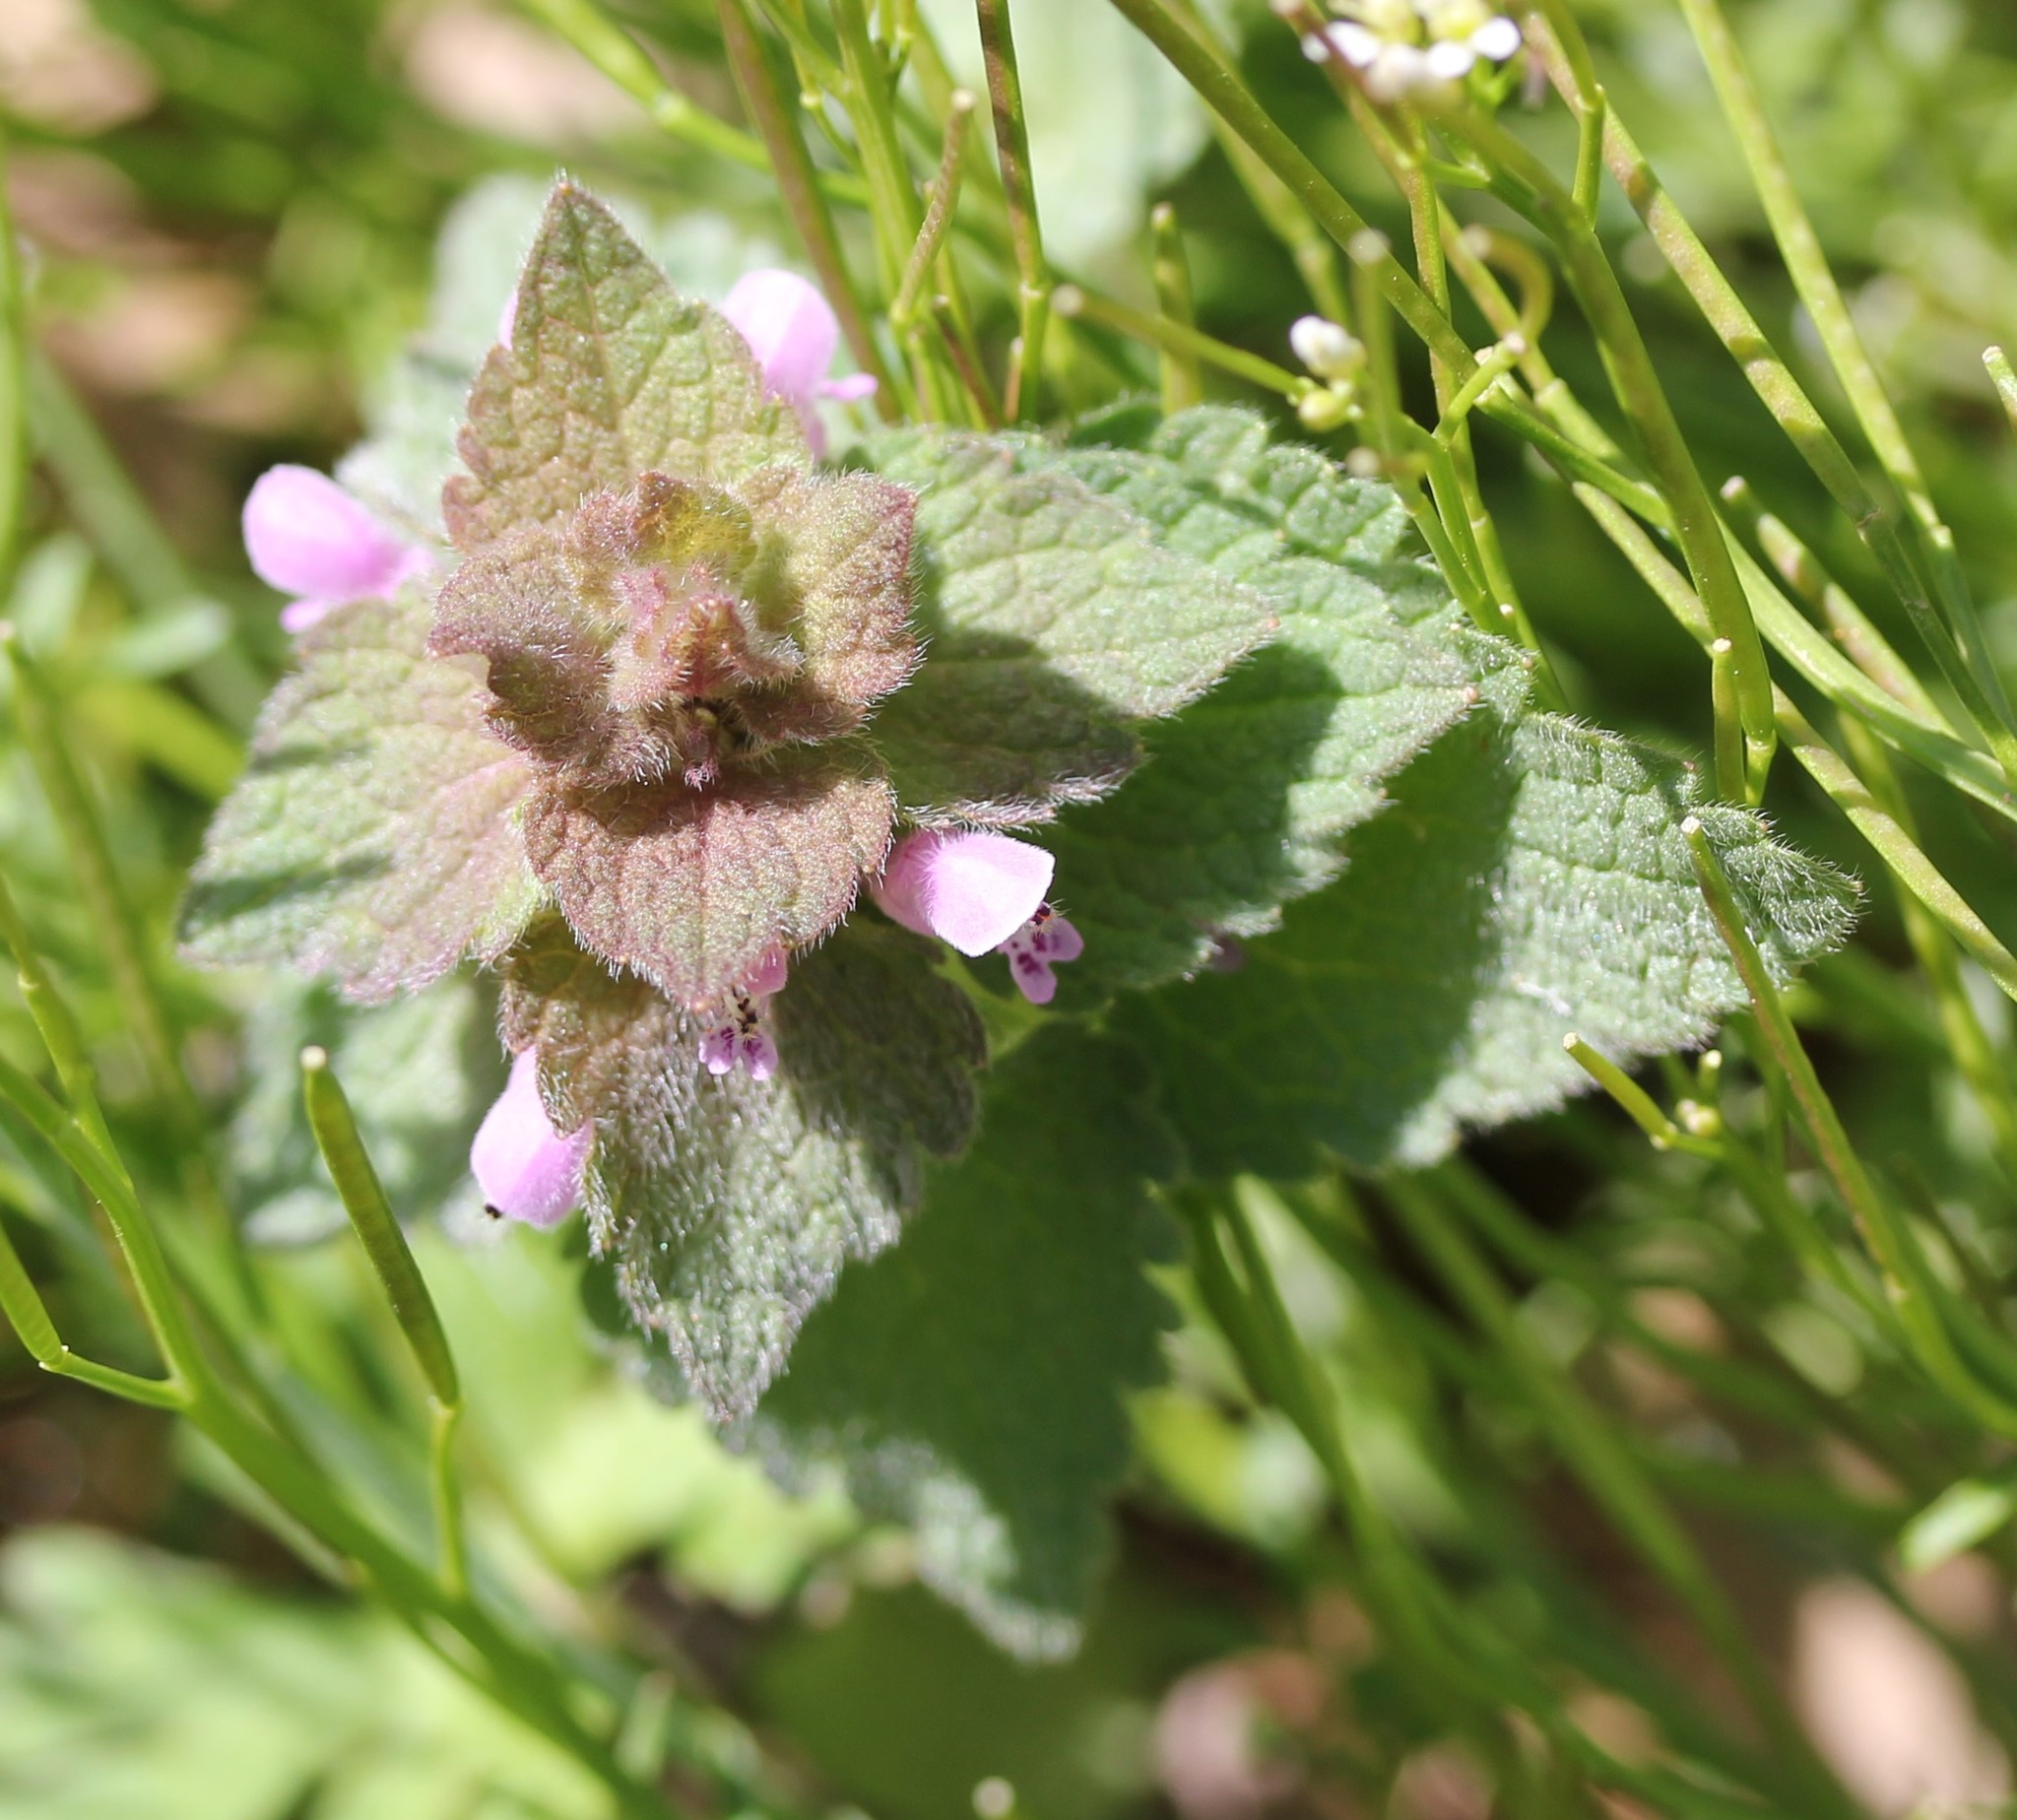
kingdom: Plantae
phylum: Tracheophyta
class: Magnoliopsida
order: Lamiales
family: Lamiaceae
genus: Lamium
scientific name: Lamium purpureum
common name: Red dead-nettle
